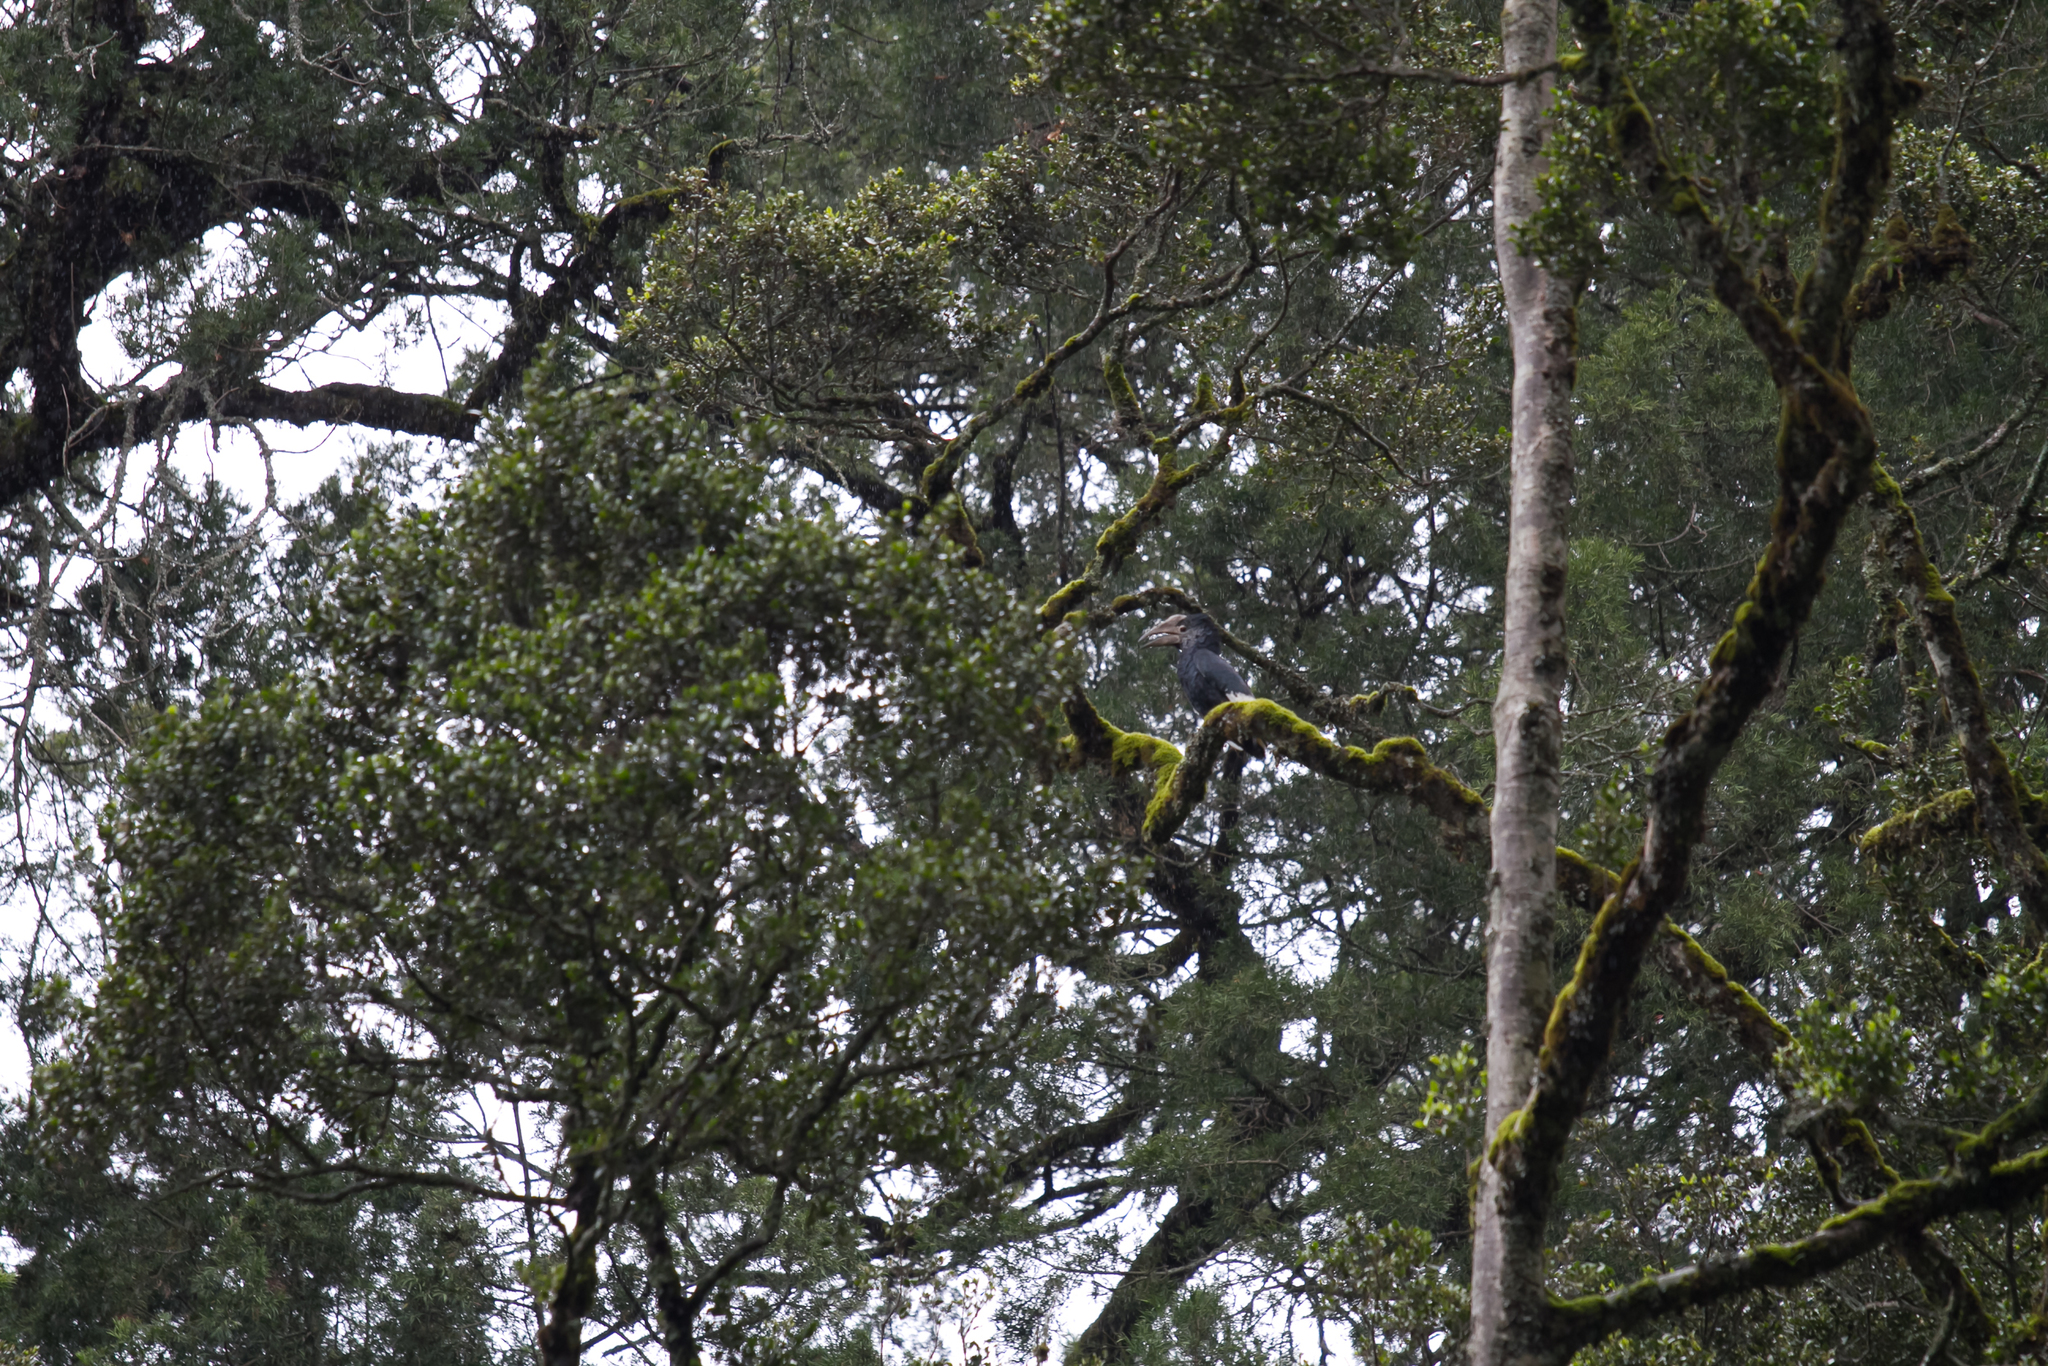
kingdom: Animalia
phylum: Chordata
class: Aves
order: Bucerotiformes
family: Bucerotidae
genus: Bycanistes
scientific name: Bycanistes subcylindricus
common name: Black-and-white-casqued hornbill
